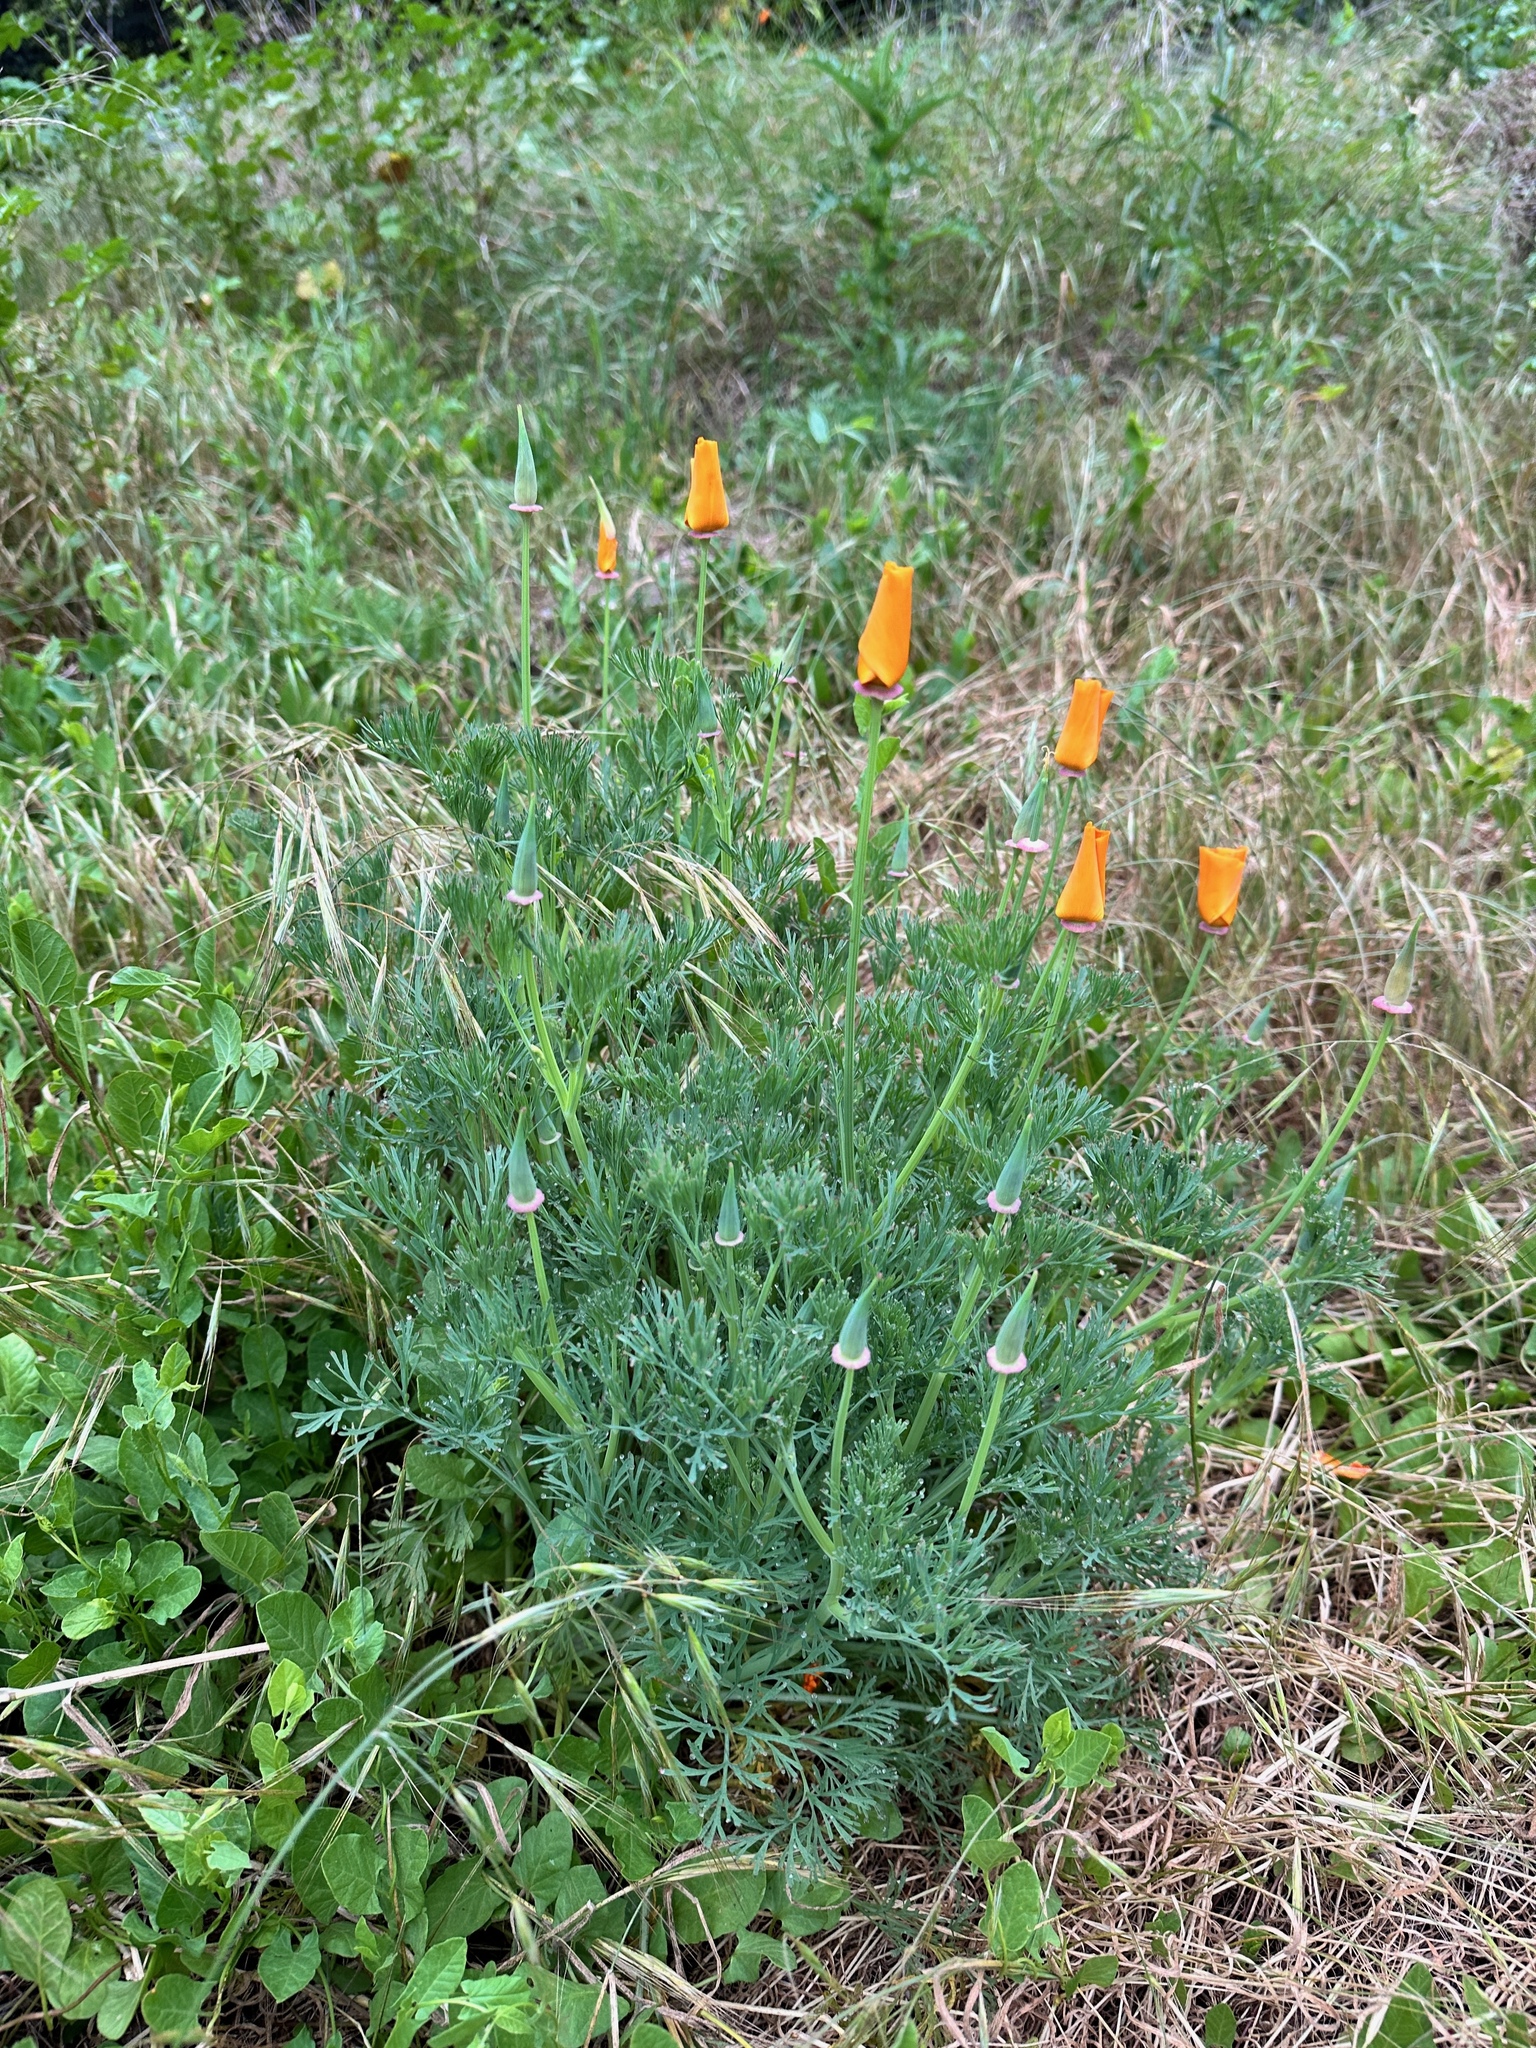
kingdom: Plantae
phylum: Tracheophyta
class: Magnoliopsida
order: Ranunculales
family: Papaveraceae
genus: Eschscholzia
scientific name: Eschscholzia californica
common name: California poppy
